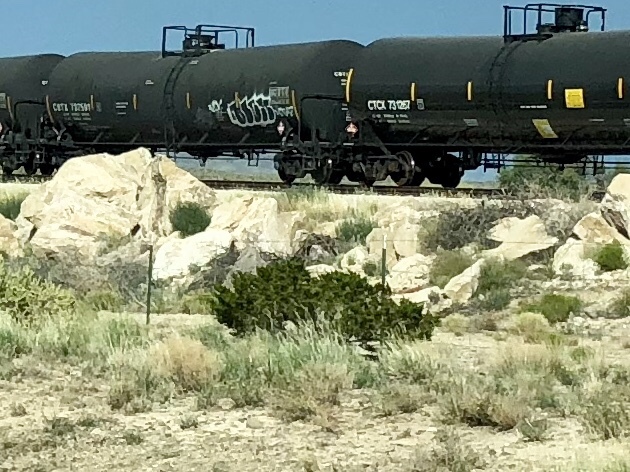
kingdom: Plantae
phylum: Tracheophyta
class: Magnoliopsida
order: Zygophyllales
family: Zygophyllaceae
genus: Larrea
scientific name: Larrea tridentata
